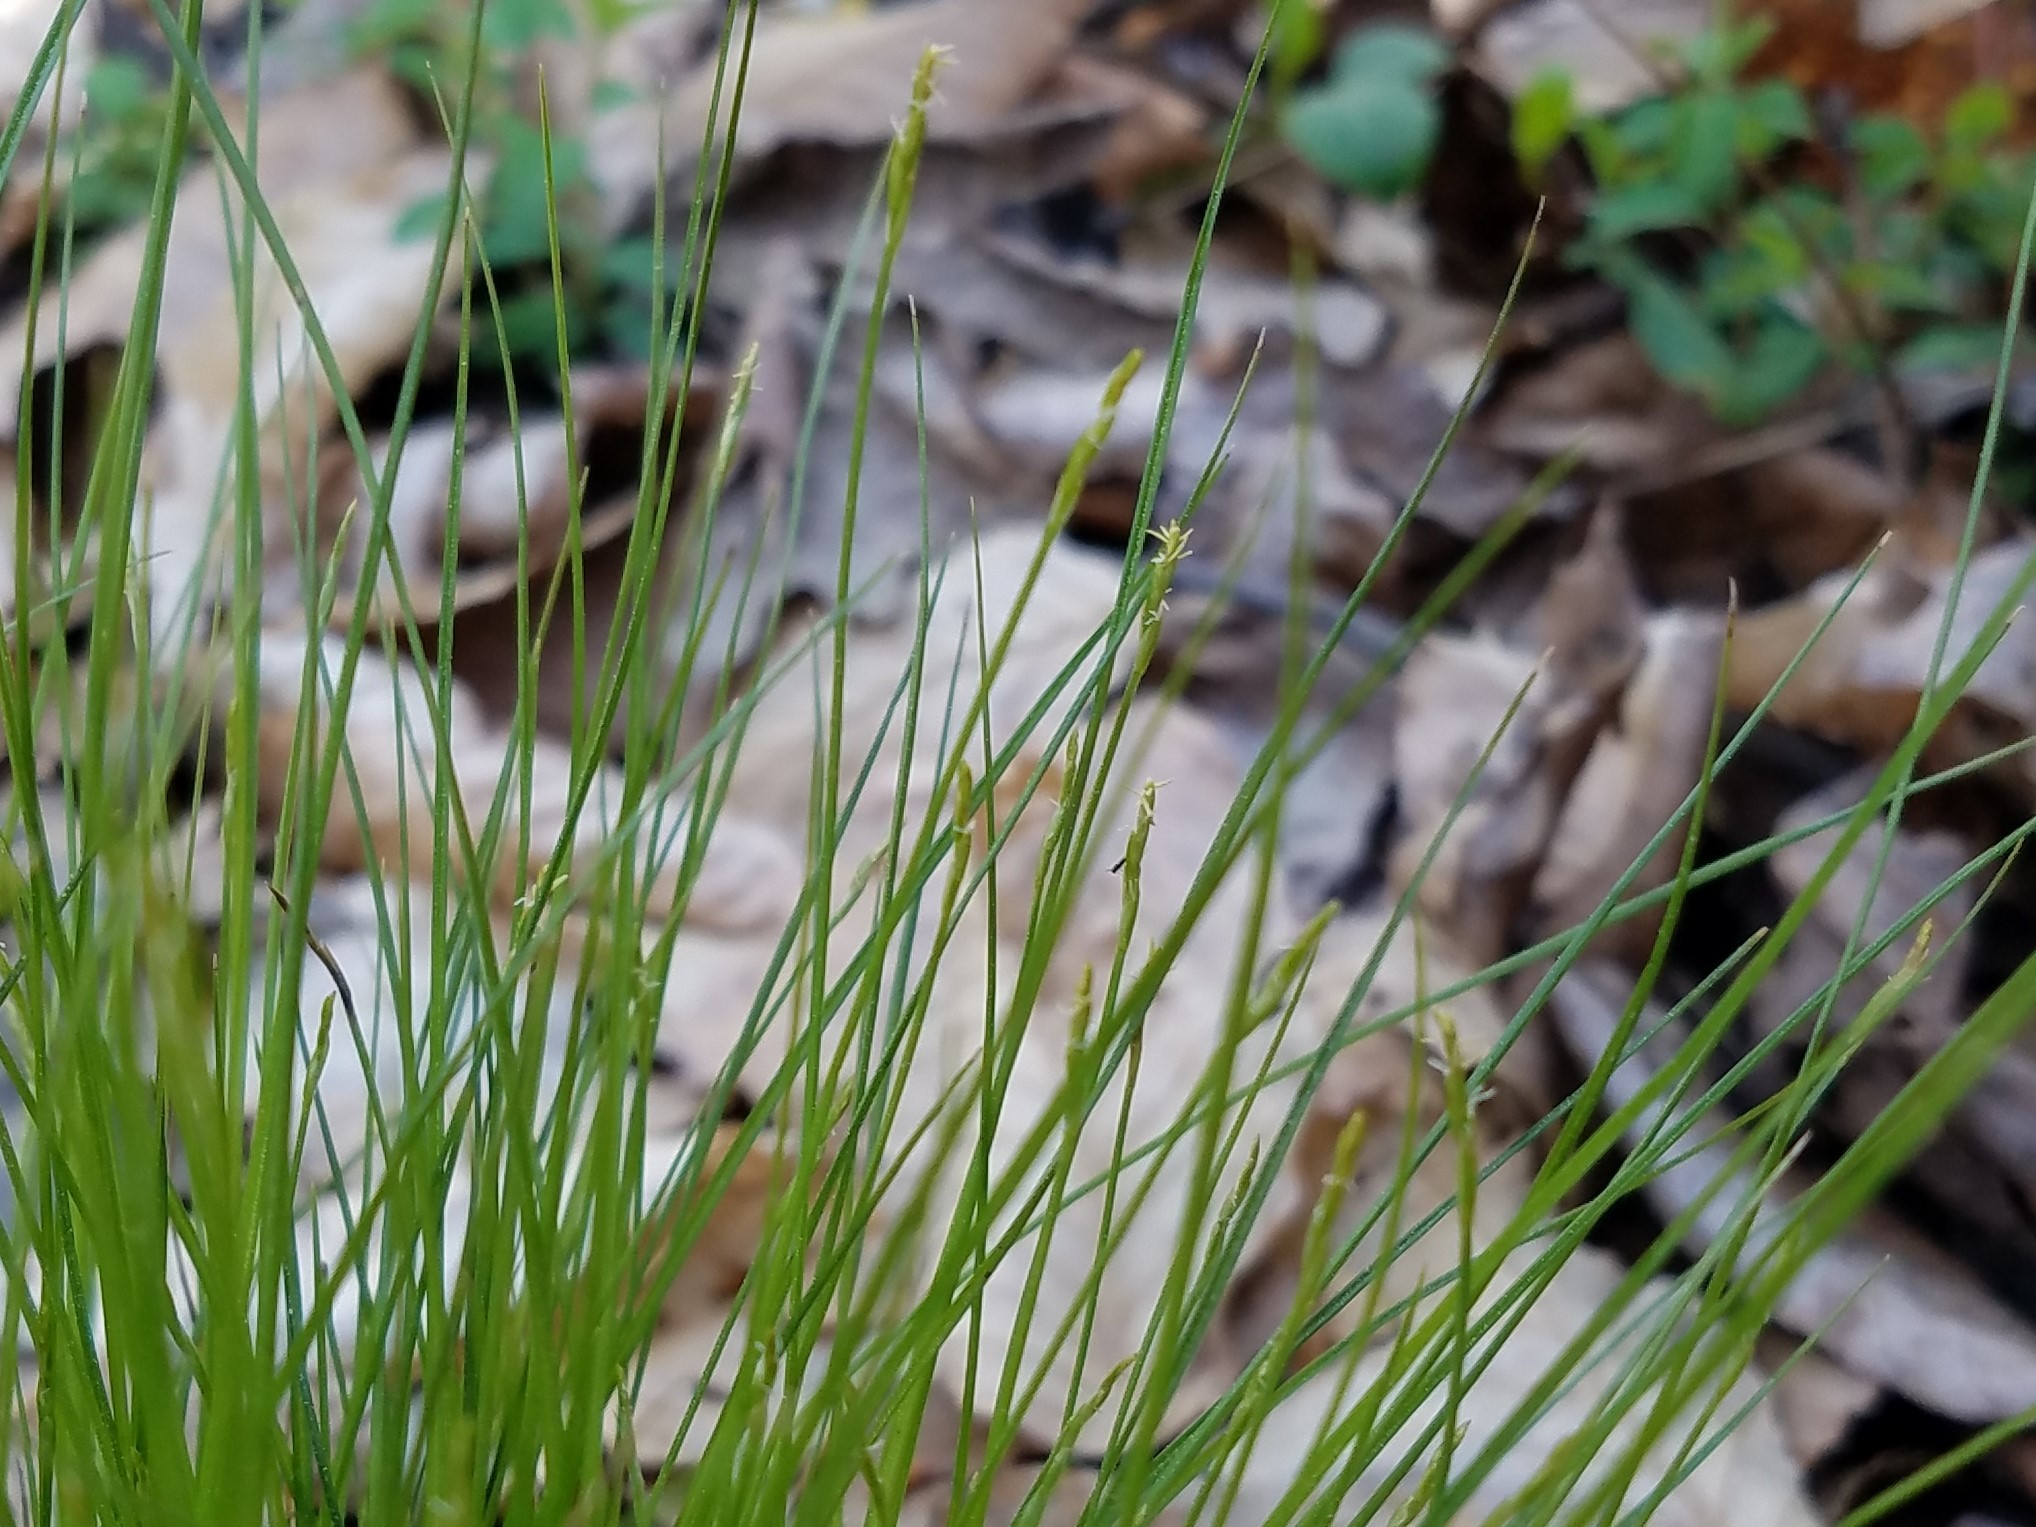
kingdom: Plantae
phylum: Tracheophyta
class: Liliopsida
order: Poales
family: Cyperaceae
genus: Carex
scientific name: Carex leptalea
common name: Bristly-stalked sedge
